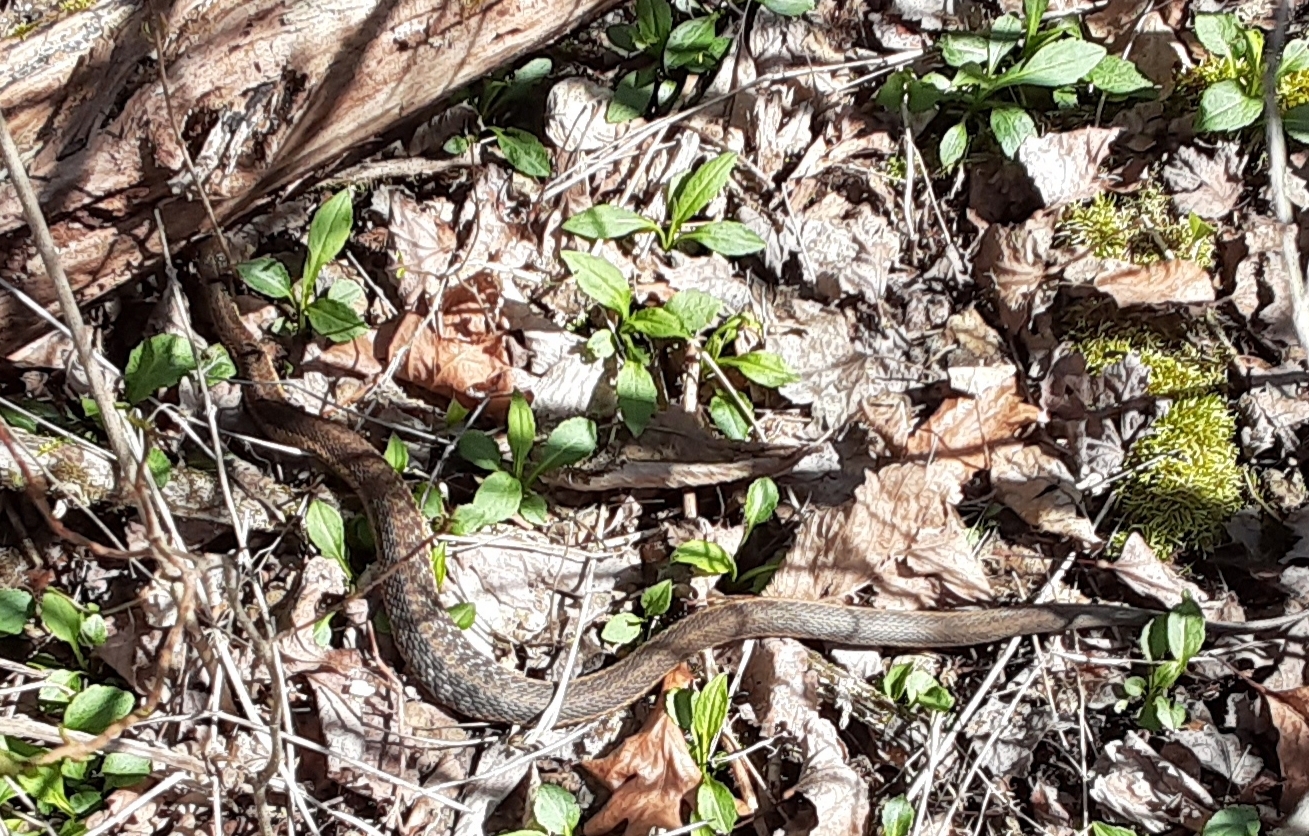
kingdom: Animalia
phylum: Chordata
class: Squamata
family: Colubridae
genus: Thamnophis
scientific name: Thamnophis sirtalis
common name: Common garter snake
